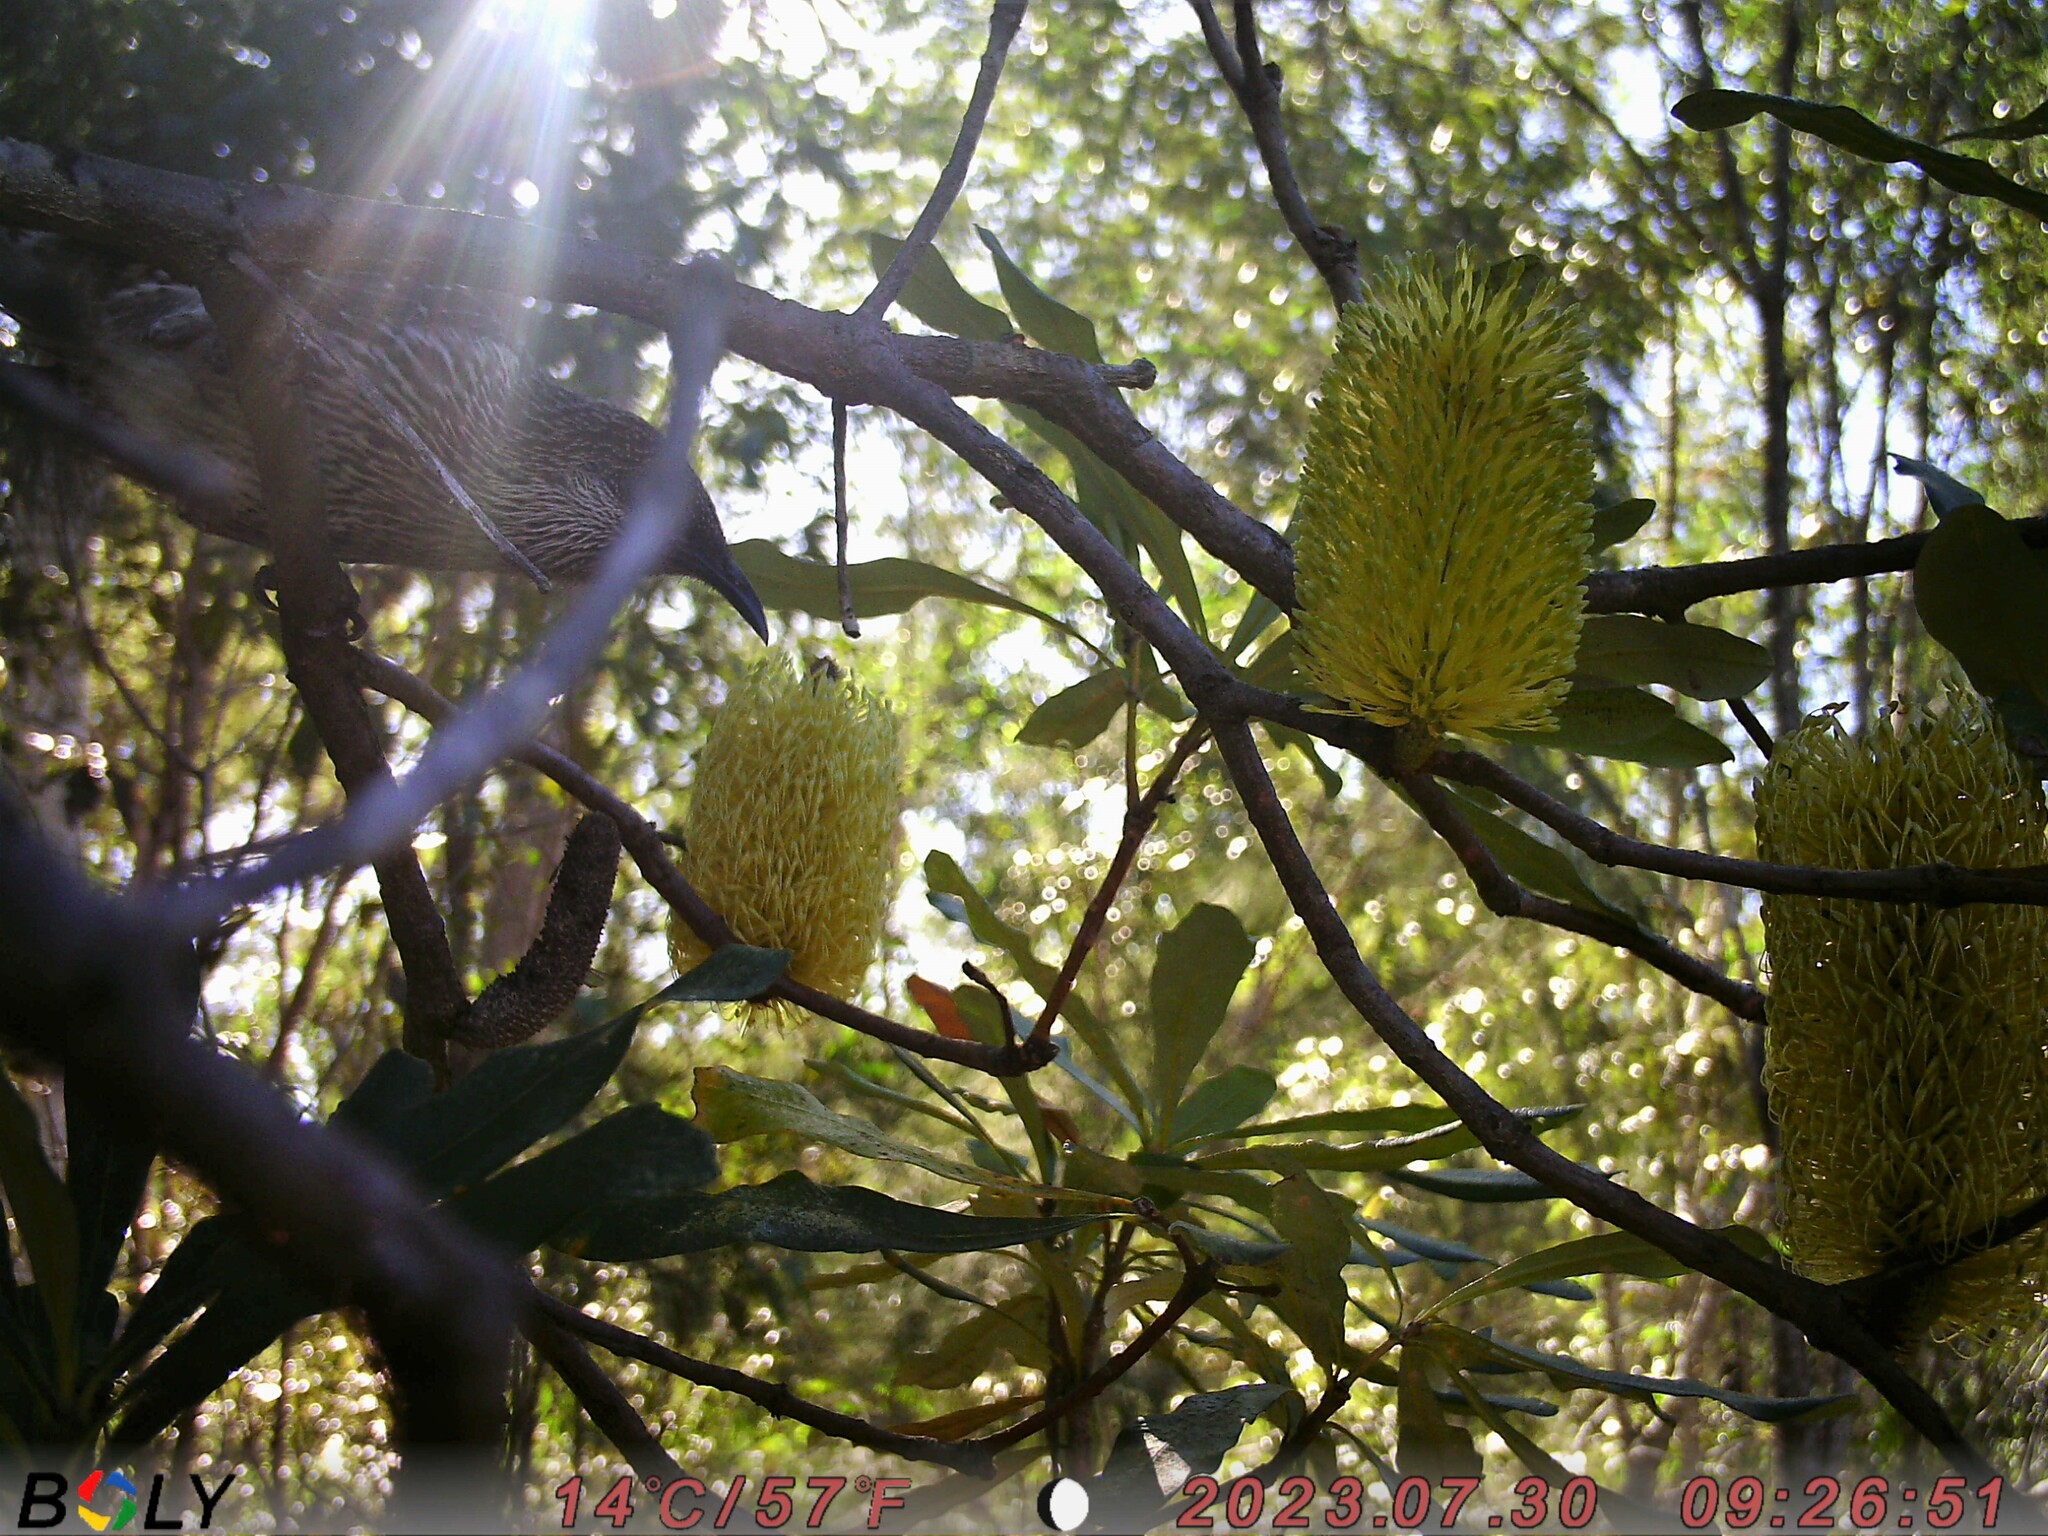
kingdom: Animalia
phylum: Chordata
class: Aves
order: Passeriformes
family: Meliphagidae
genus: Anthochaera
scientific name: Anthochaera chrysoptera
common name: Little wattlebird
